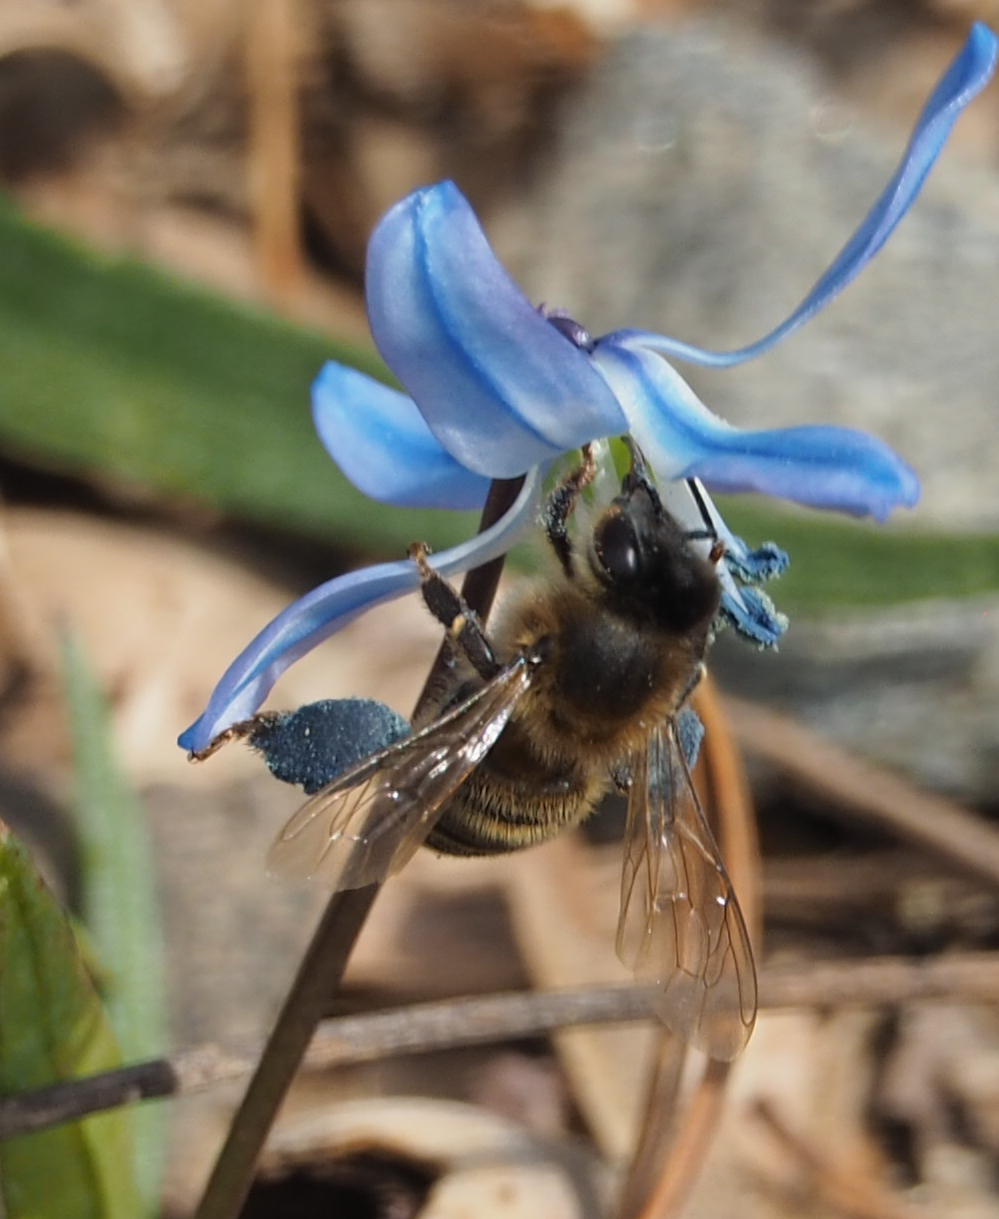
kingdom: Animalia
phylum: Arthropoda
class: Insecta
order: Hymenoptera
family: Apidae
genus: Apis
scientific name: Apis mellifera
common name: Honey bee
